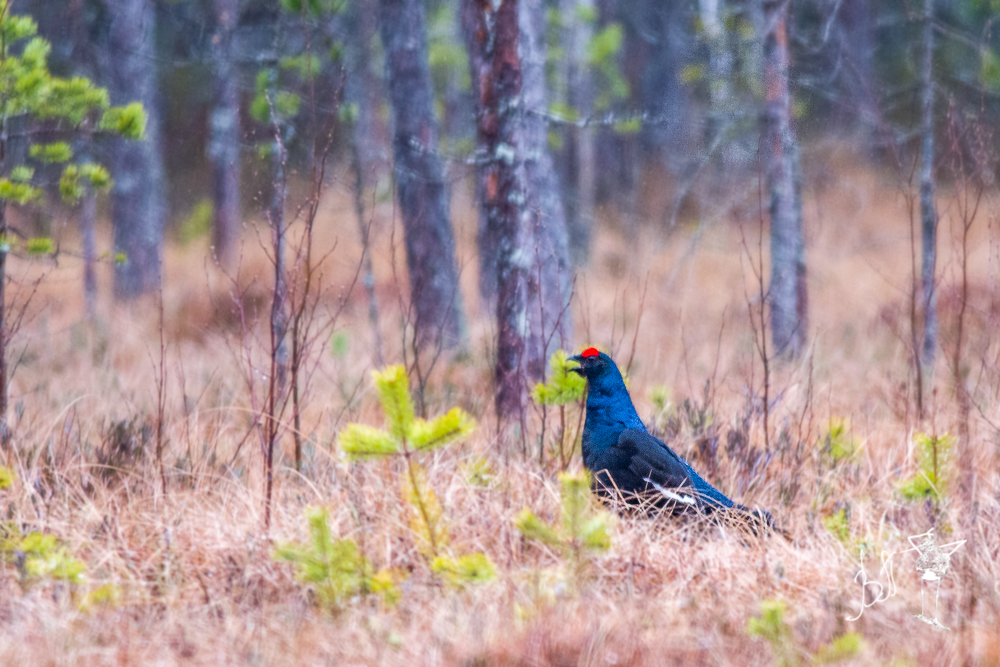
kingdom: Animalia
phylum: Chordata
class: Aves
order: Galliformes
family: Phasianidae
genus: Lyrurus
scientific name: Lyrurus tetrix
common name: Black grouse
